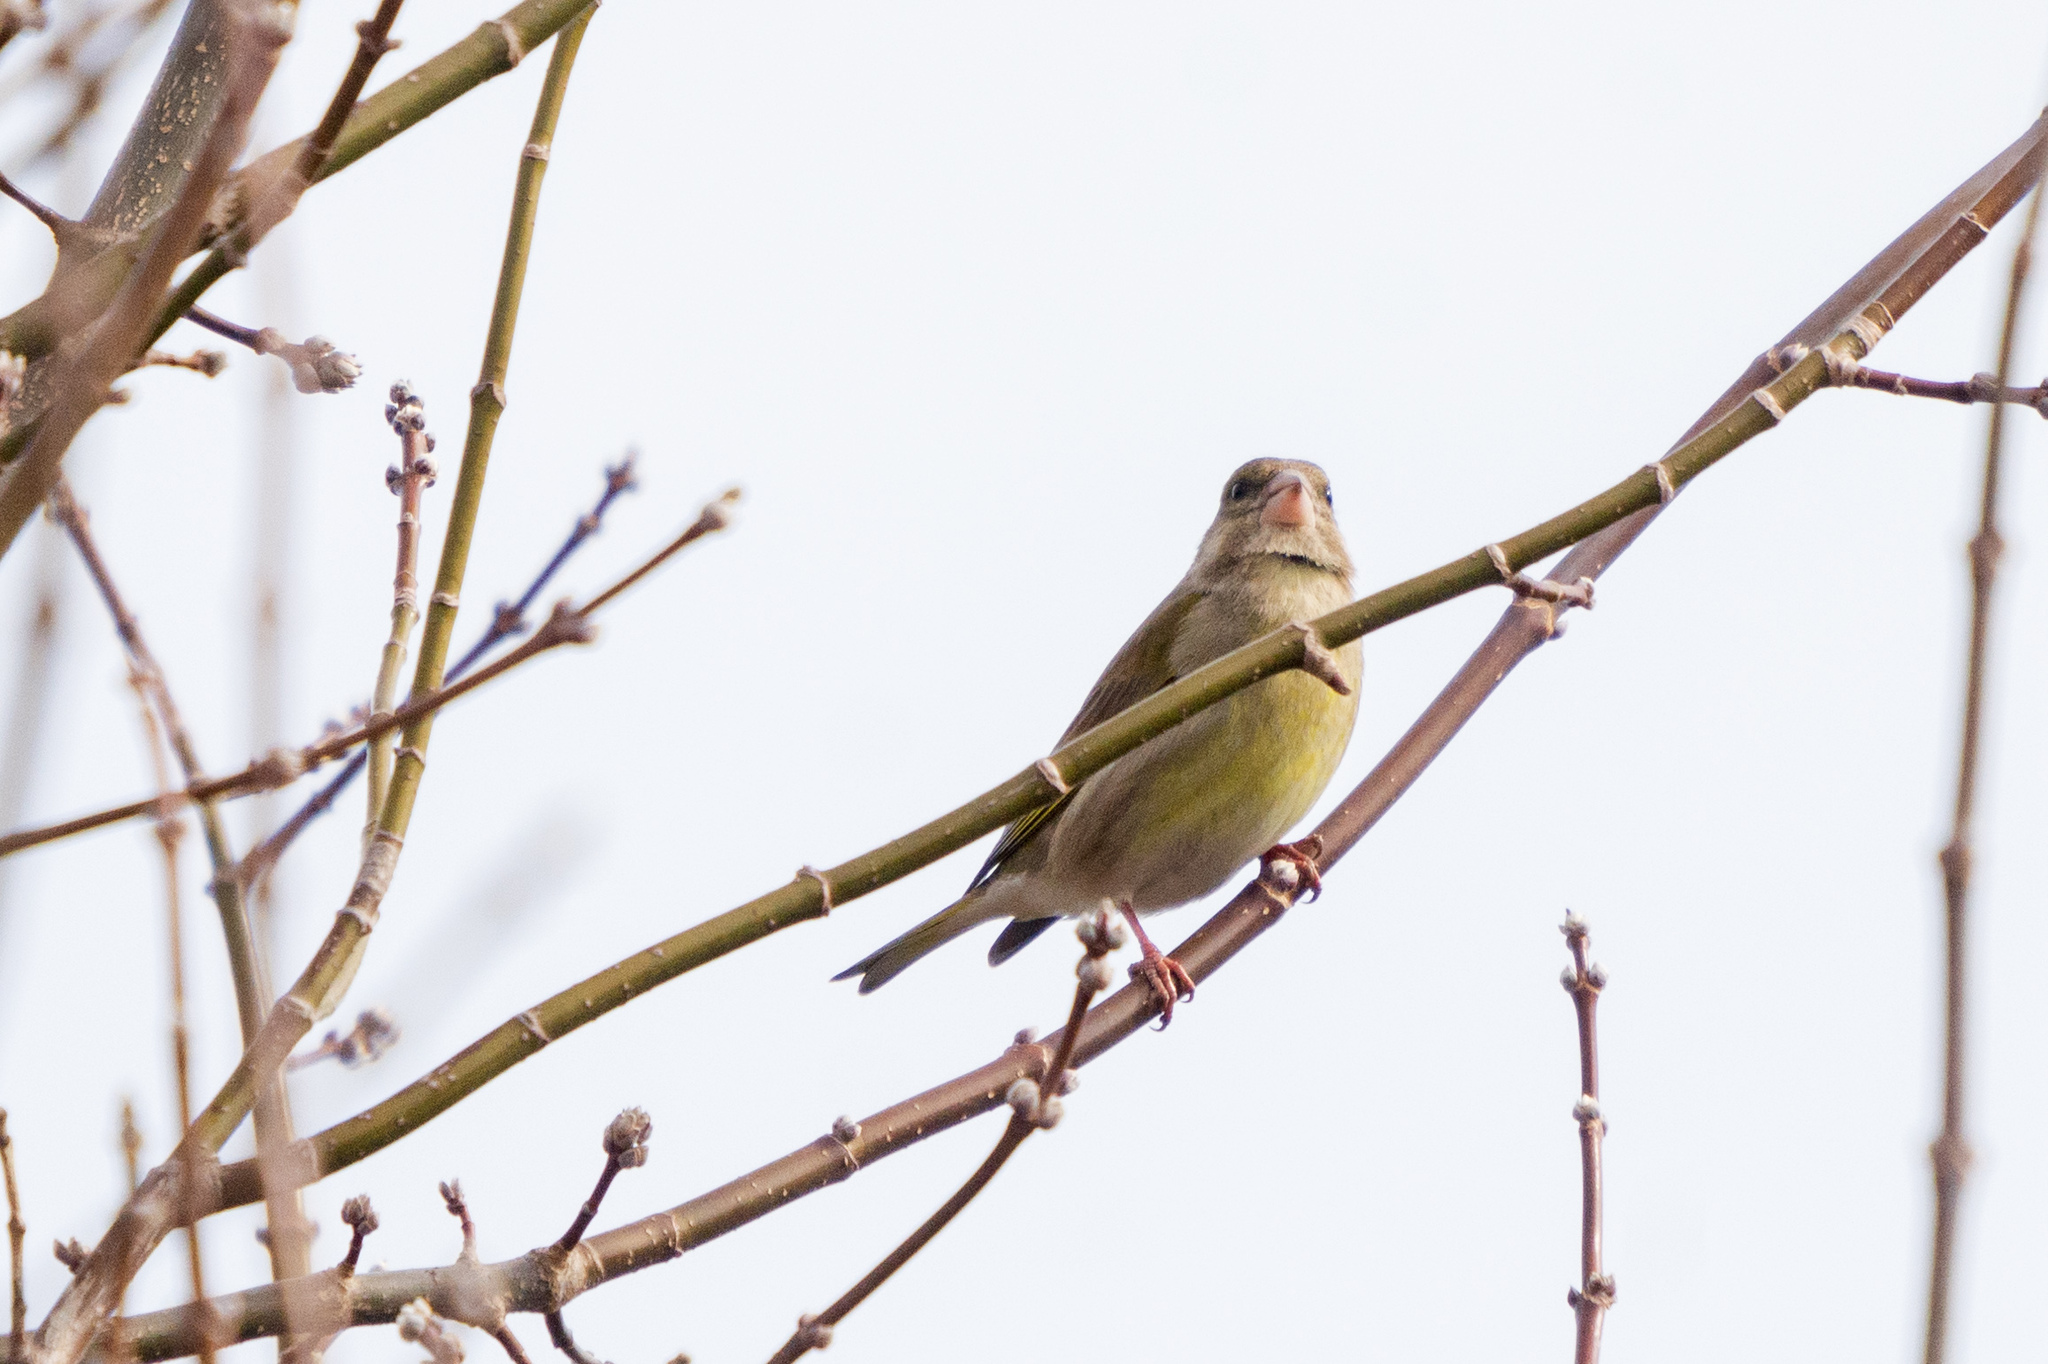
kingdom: Plantae
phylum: Tracheophyta
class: Liliopsida
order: Poales
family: Poaceae
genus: Chloris
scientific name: Chloris chloris
